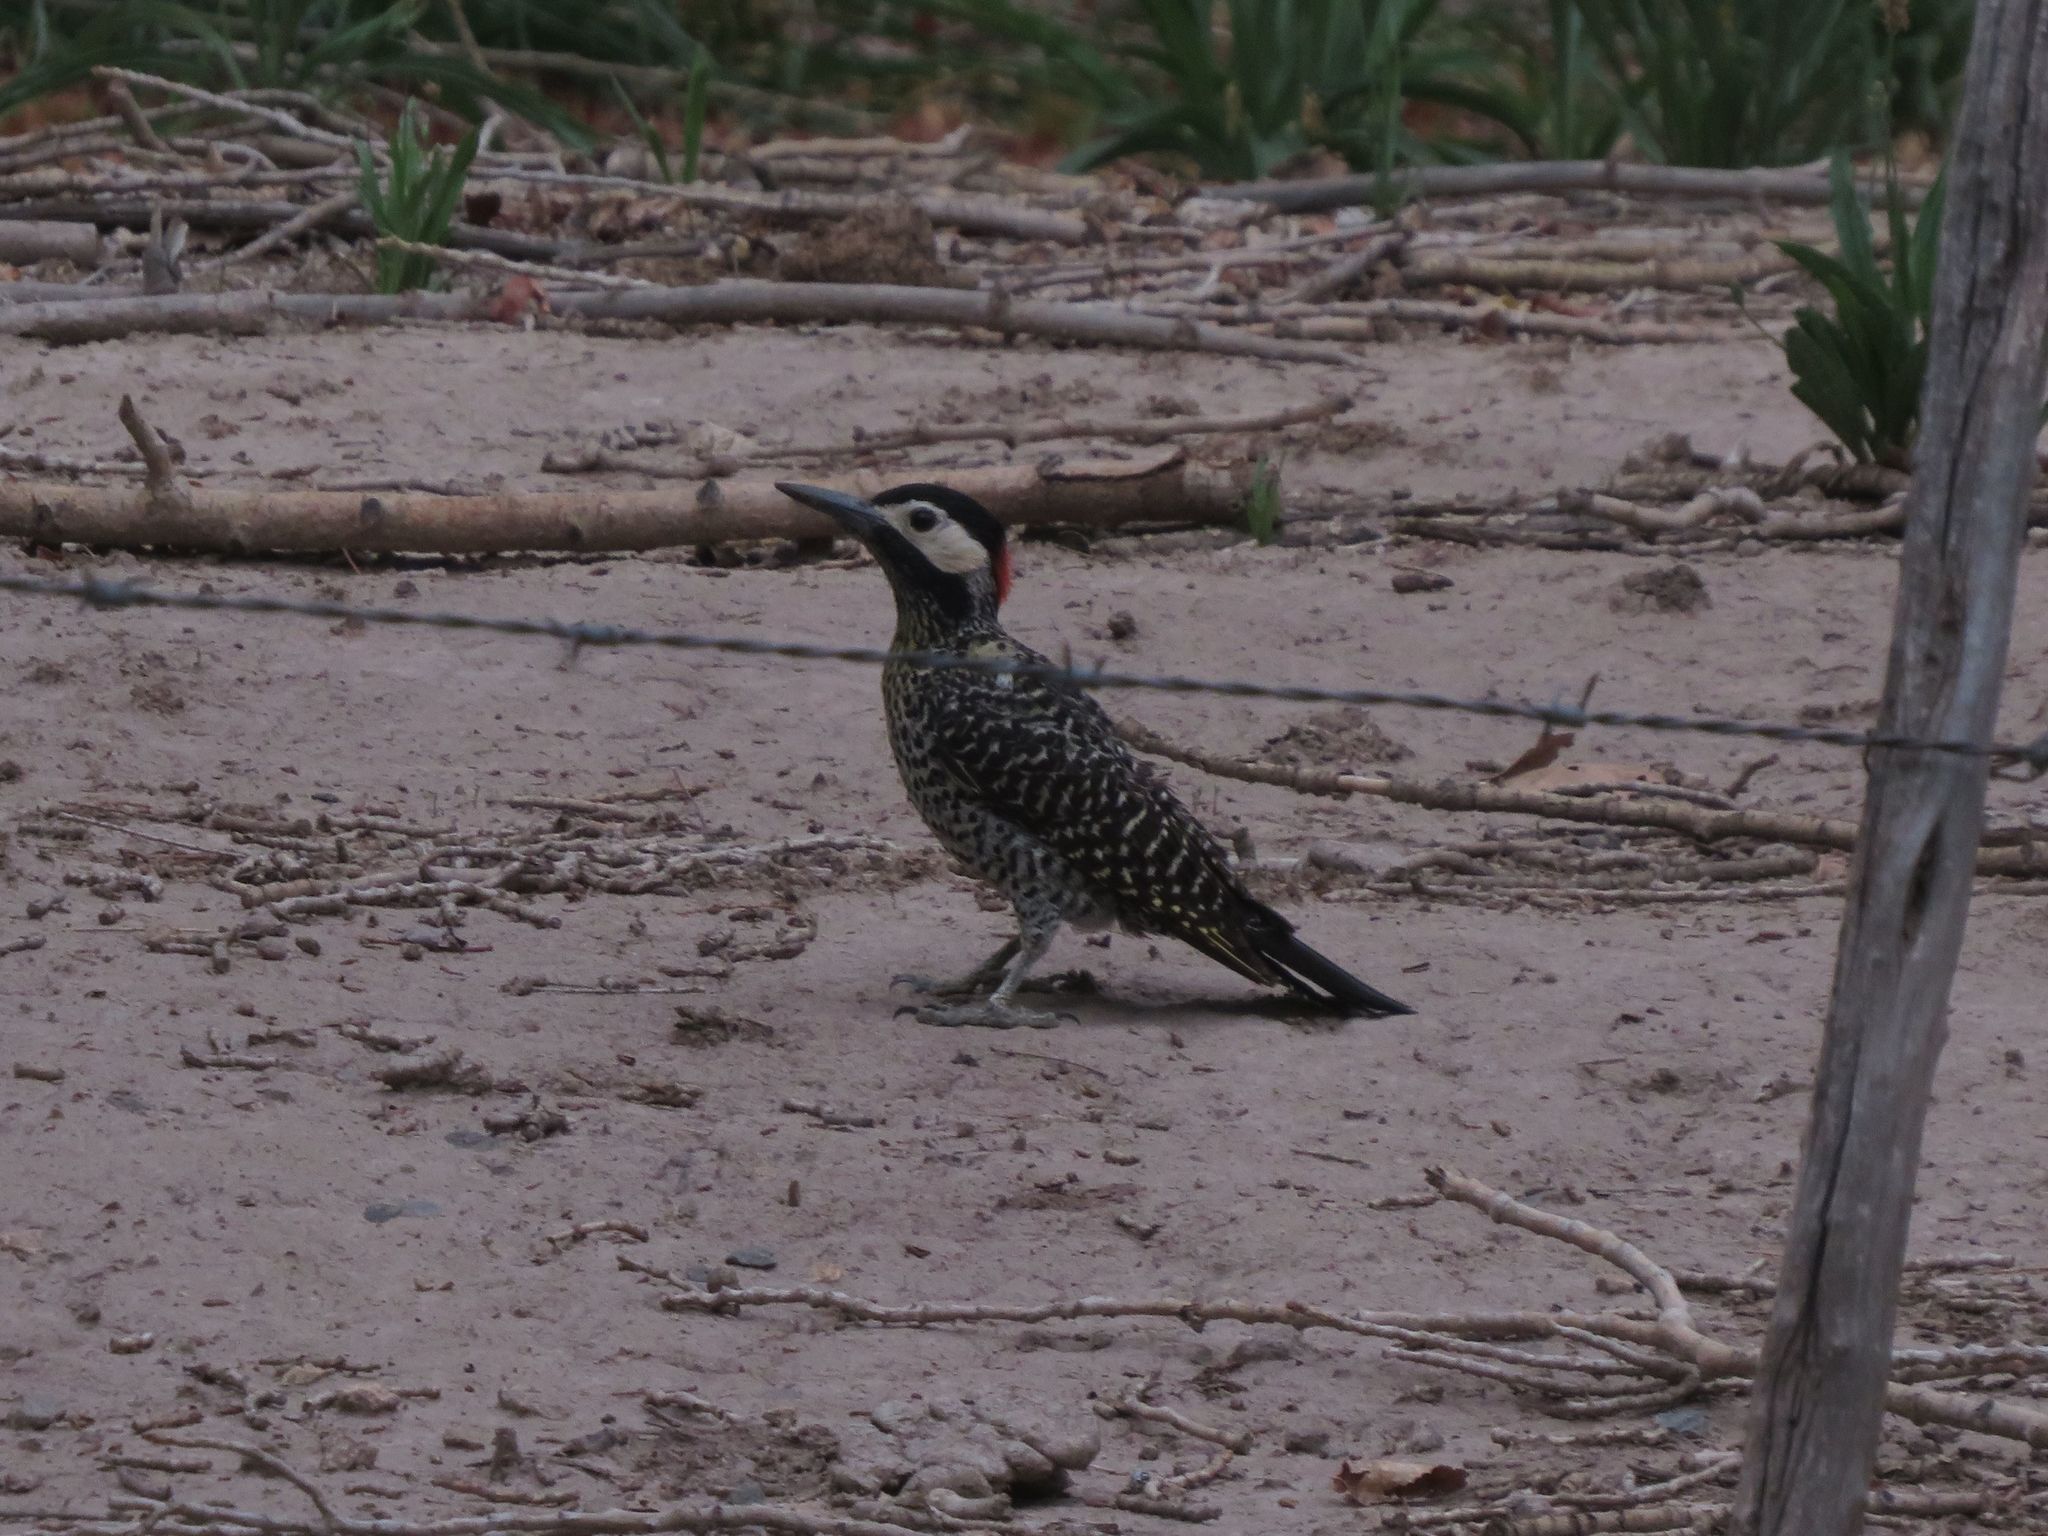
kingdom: Animalia
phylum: Chordata
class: Aves
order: Piciformes
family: Picidae
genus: Colaptes
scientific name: Colaptes melanochloros
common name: Green-barred woodpecker
